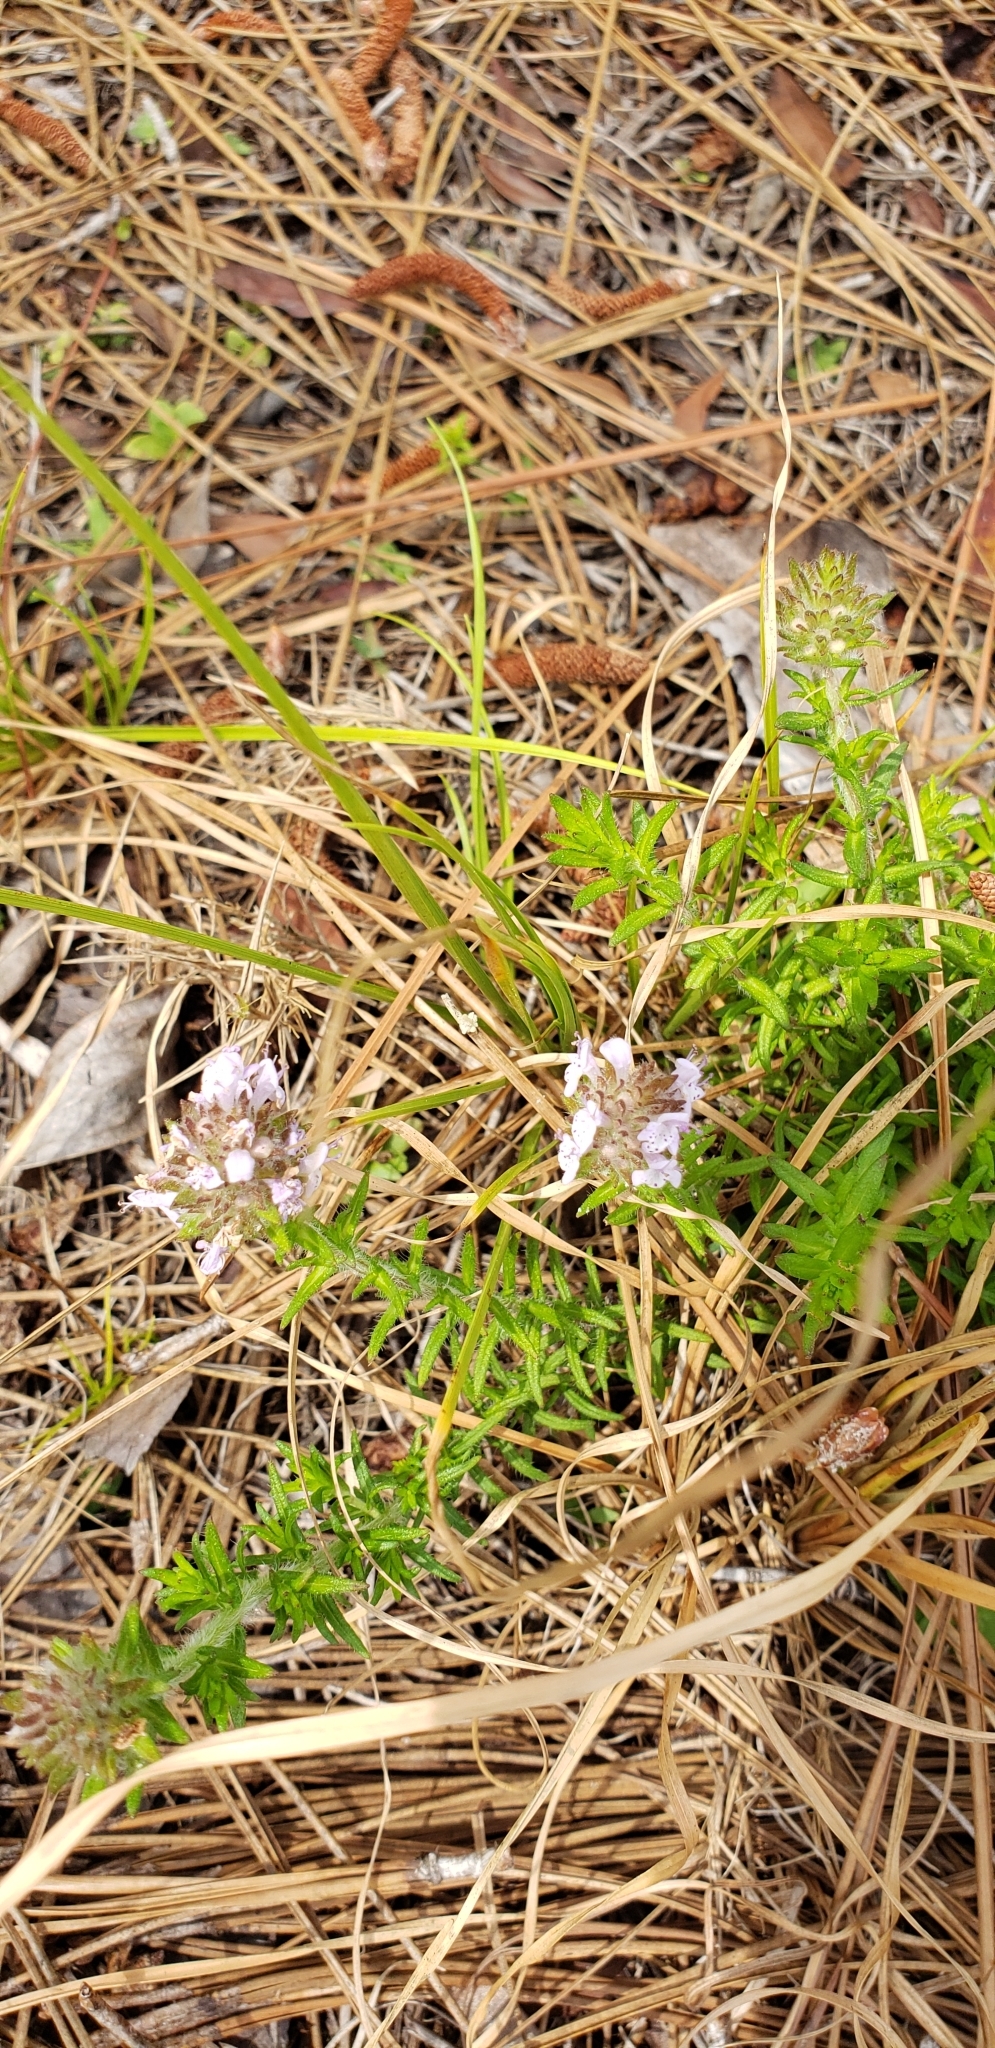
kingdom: Plantae
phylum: Tracheophyta
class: Magnoliopsida
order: Lamiales
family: Lamiaceae
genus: Piloblephis
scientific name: Piloblephis rigida
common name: Wild pennyroyal
